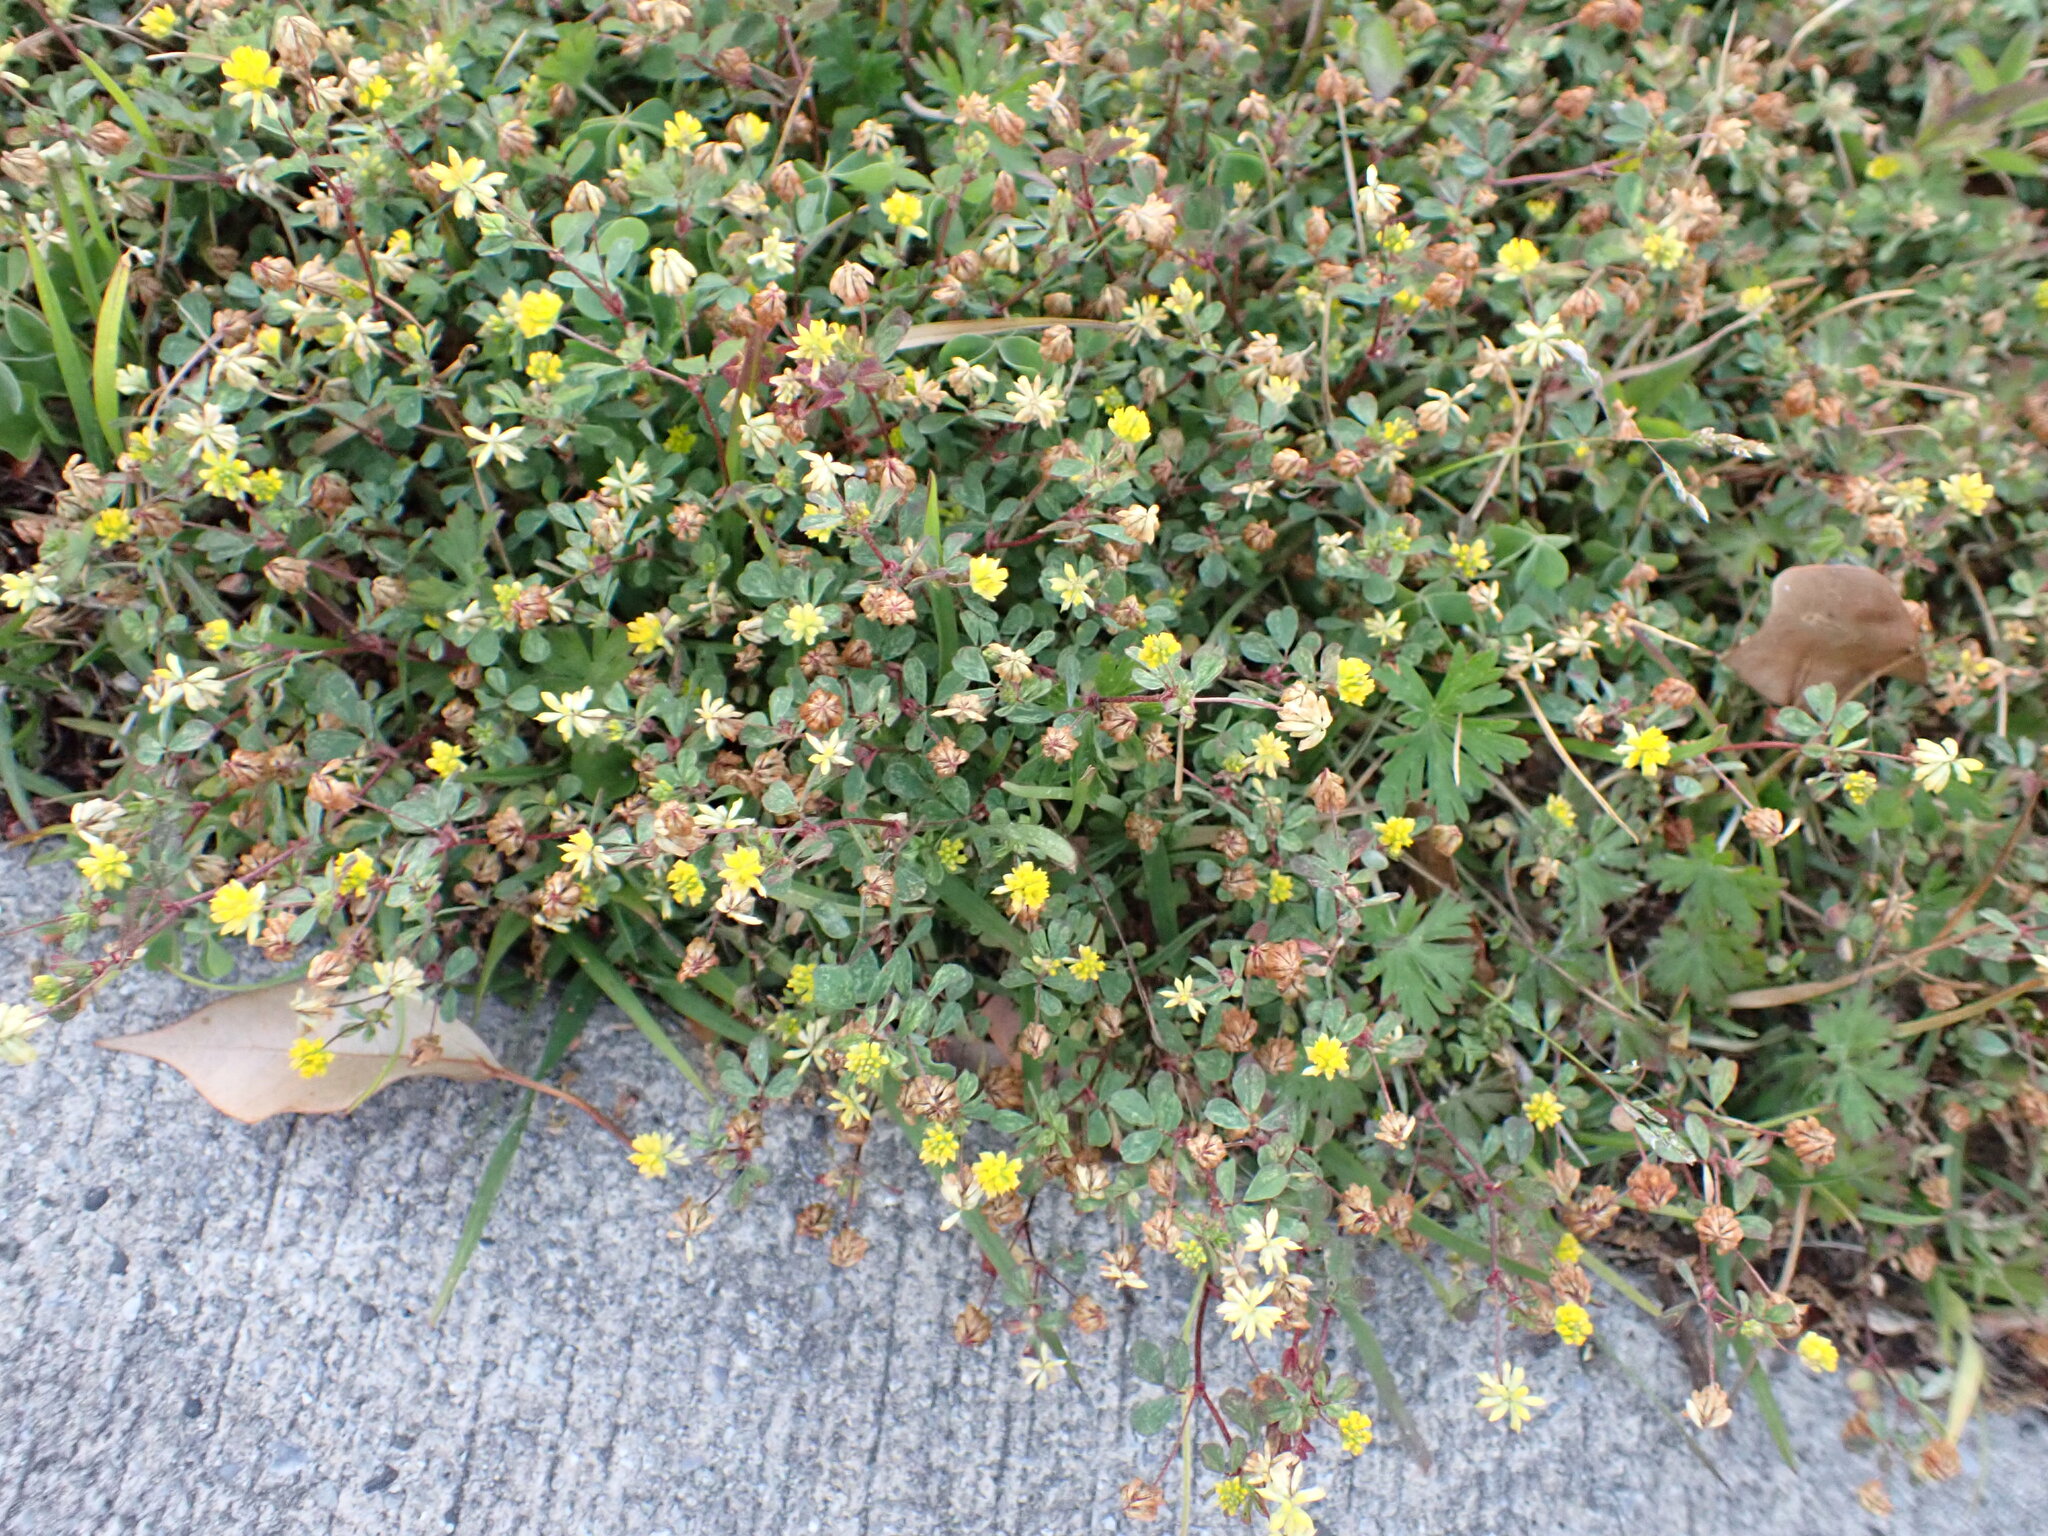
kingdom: Plantae
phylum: Tracheophyta
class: Magnoliopsida
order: Fabales
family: Fabaceae
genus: Trifolium
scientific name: Trifolium dubium
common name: Suckling clover
